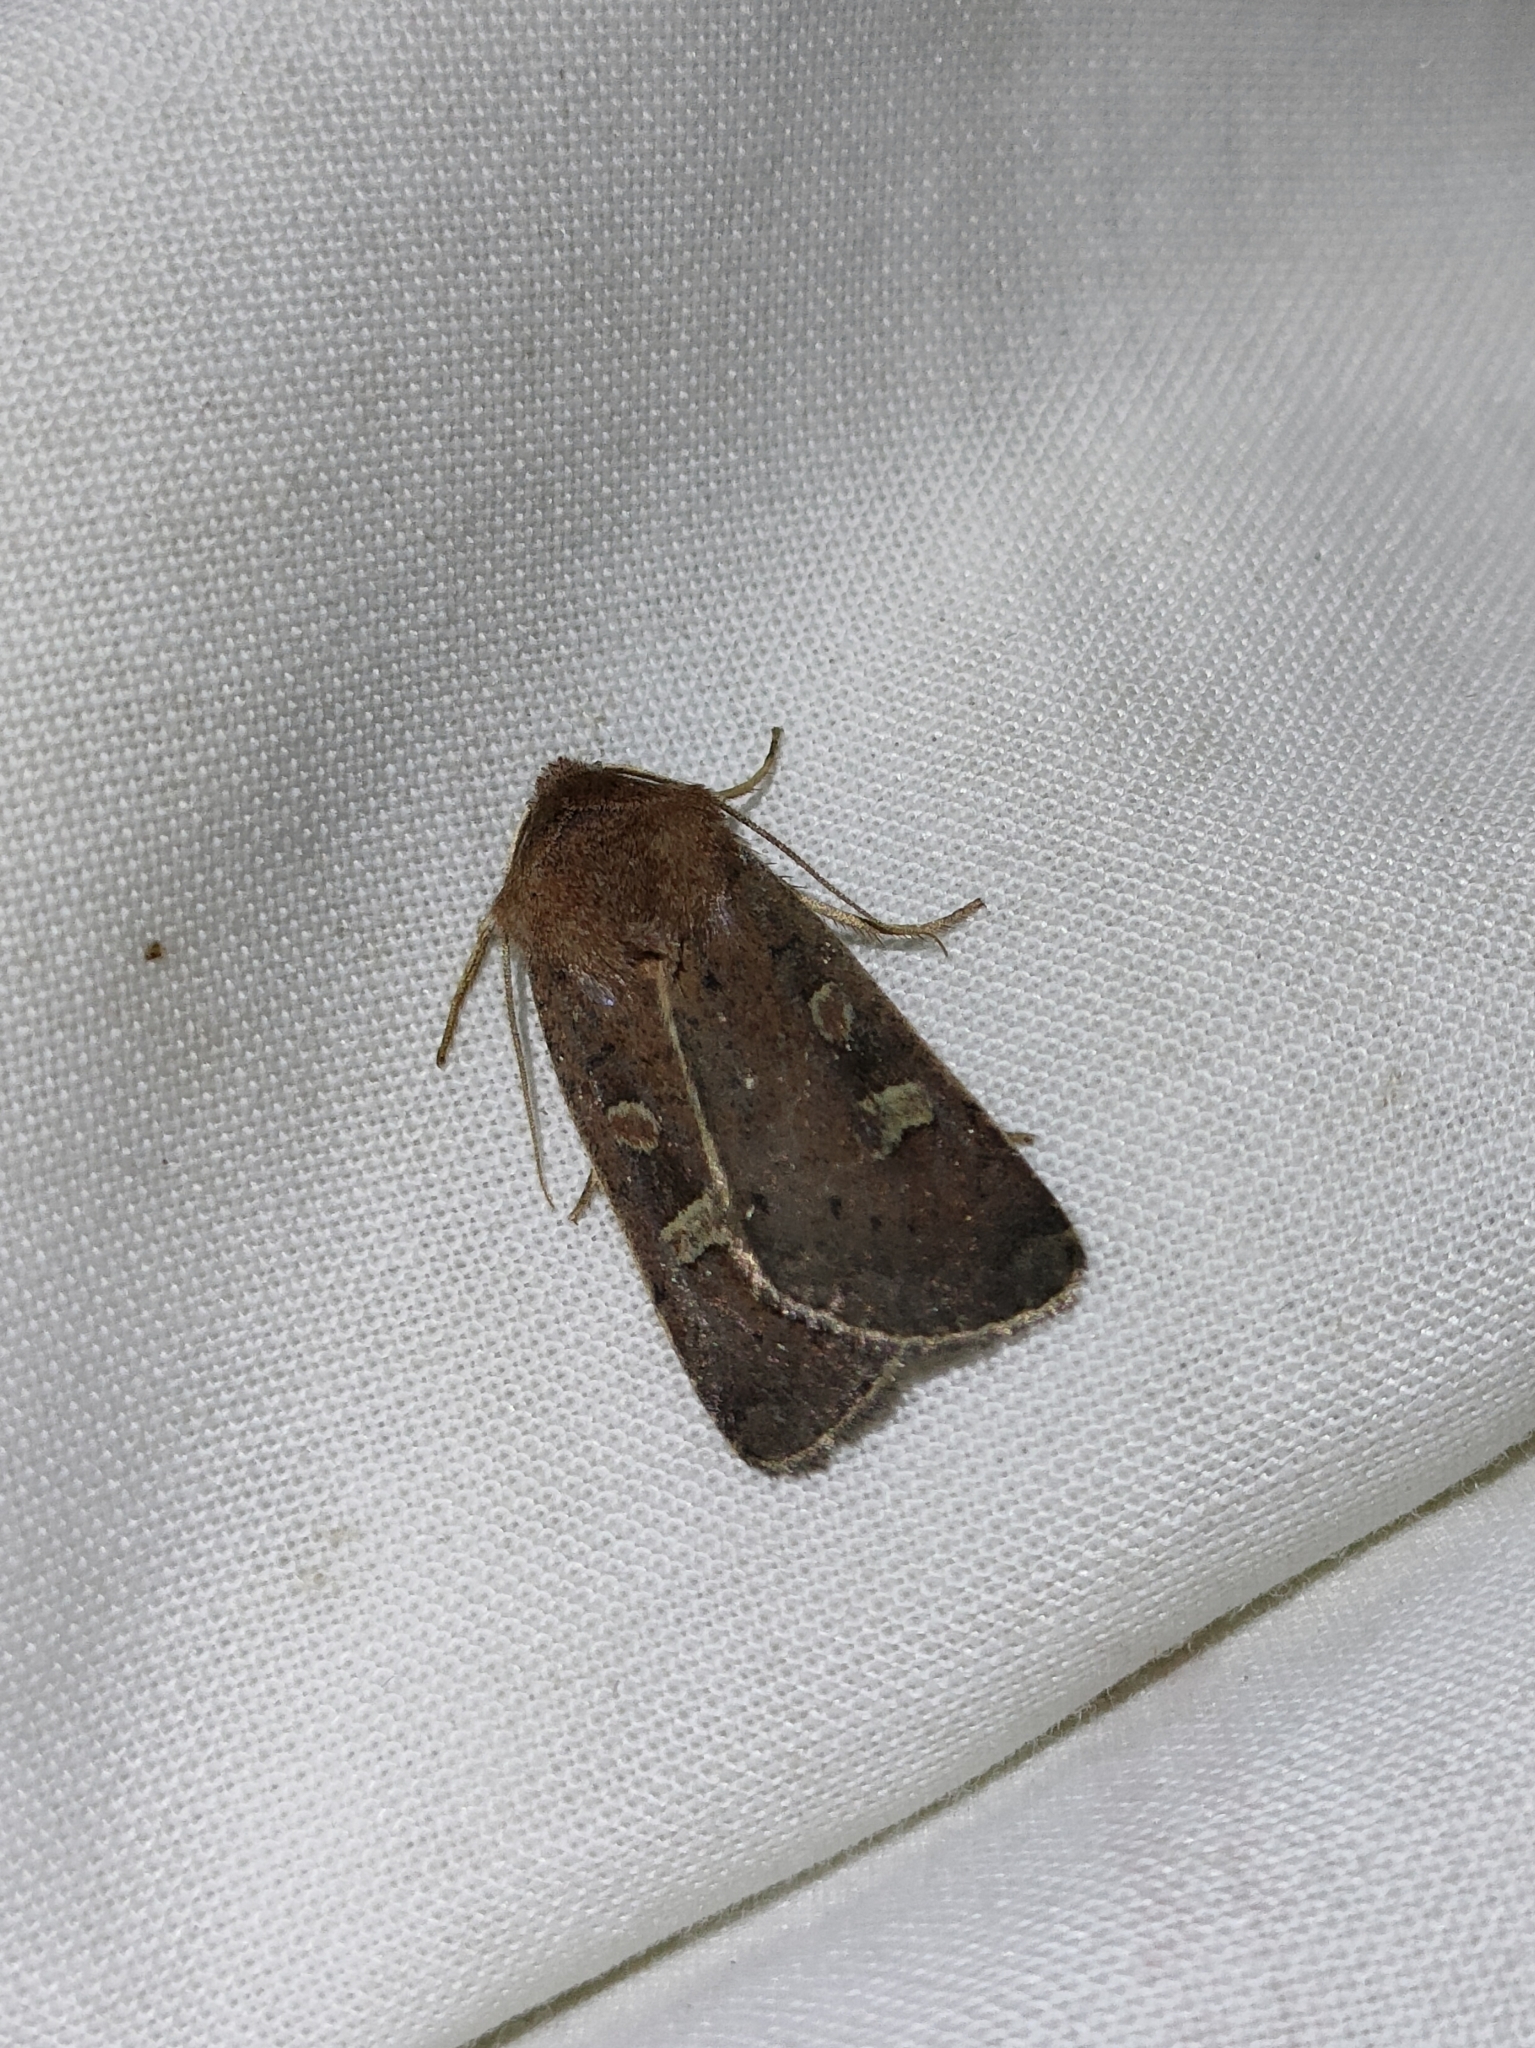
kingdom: Animalia
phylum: Arthropoda
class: Insecta
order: Lepidoptera
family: Noctuidae
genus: Xestia
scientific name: Xestia xanthographa
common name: Square-spot rustic
